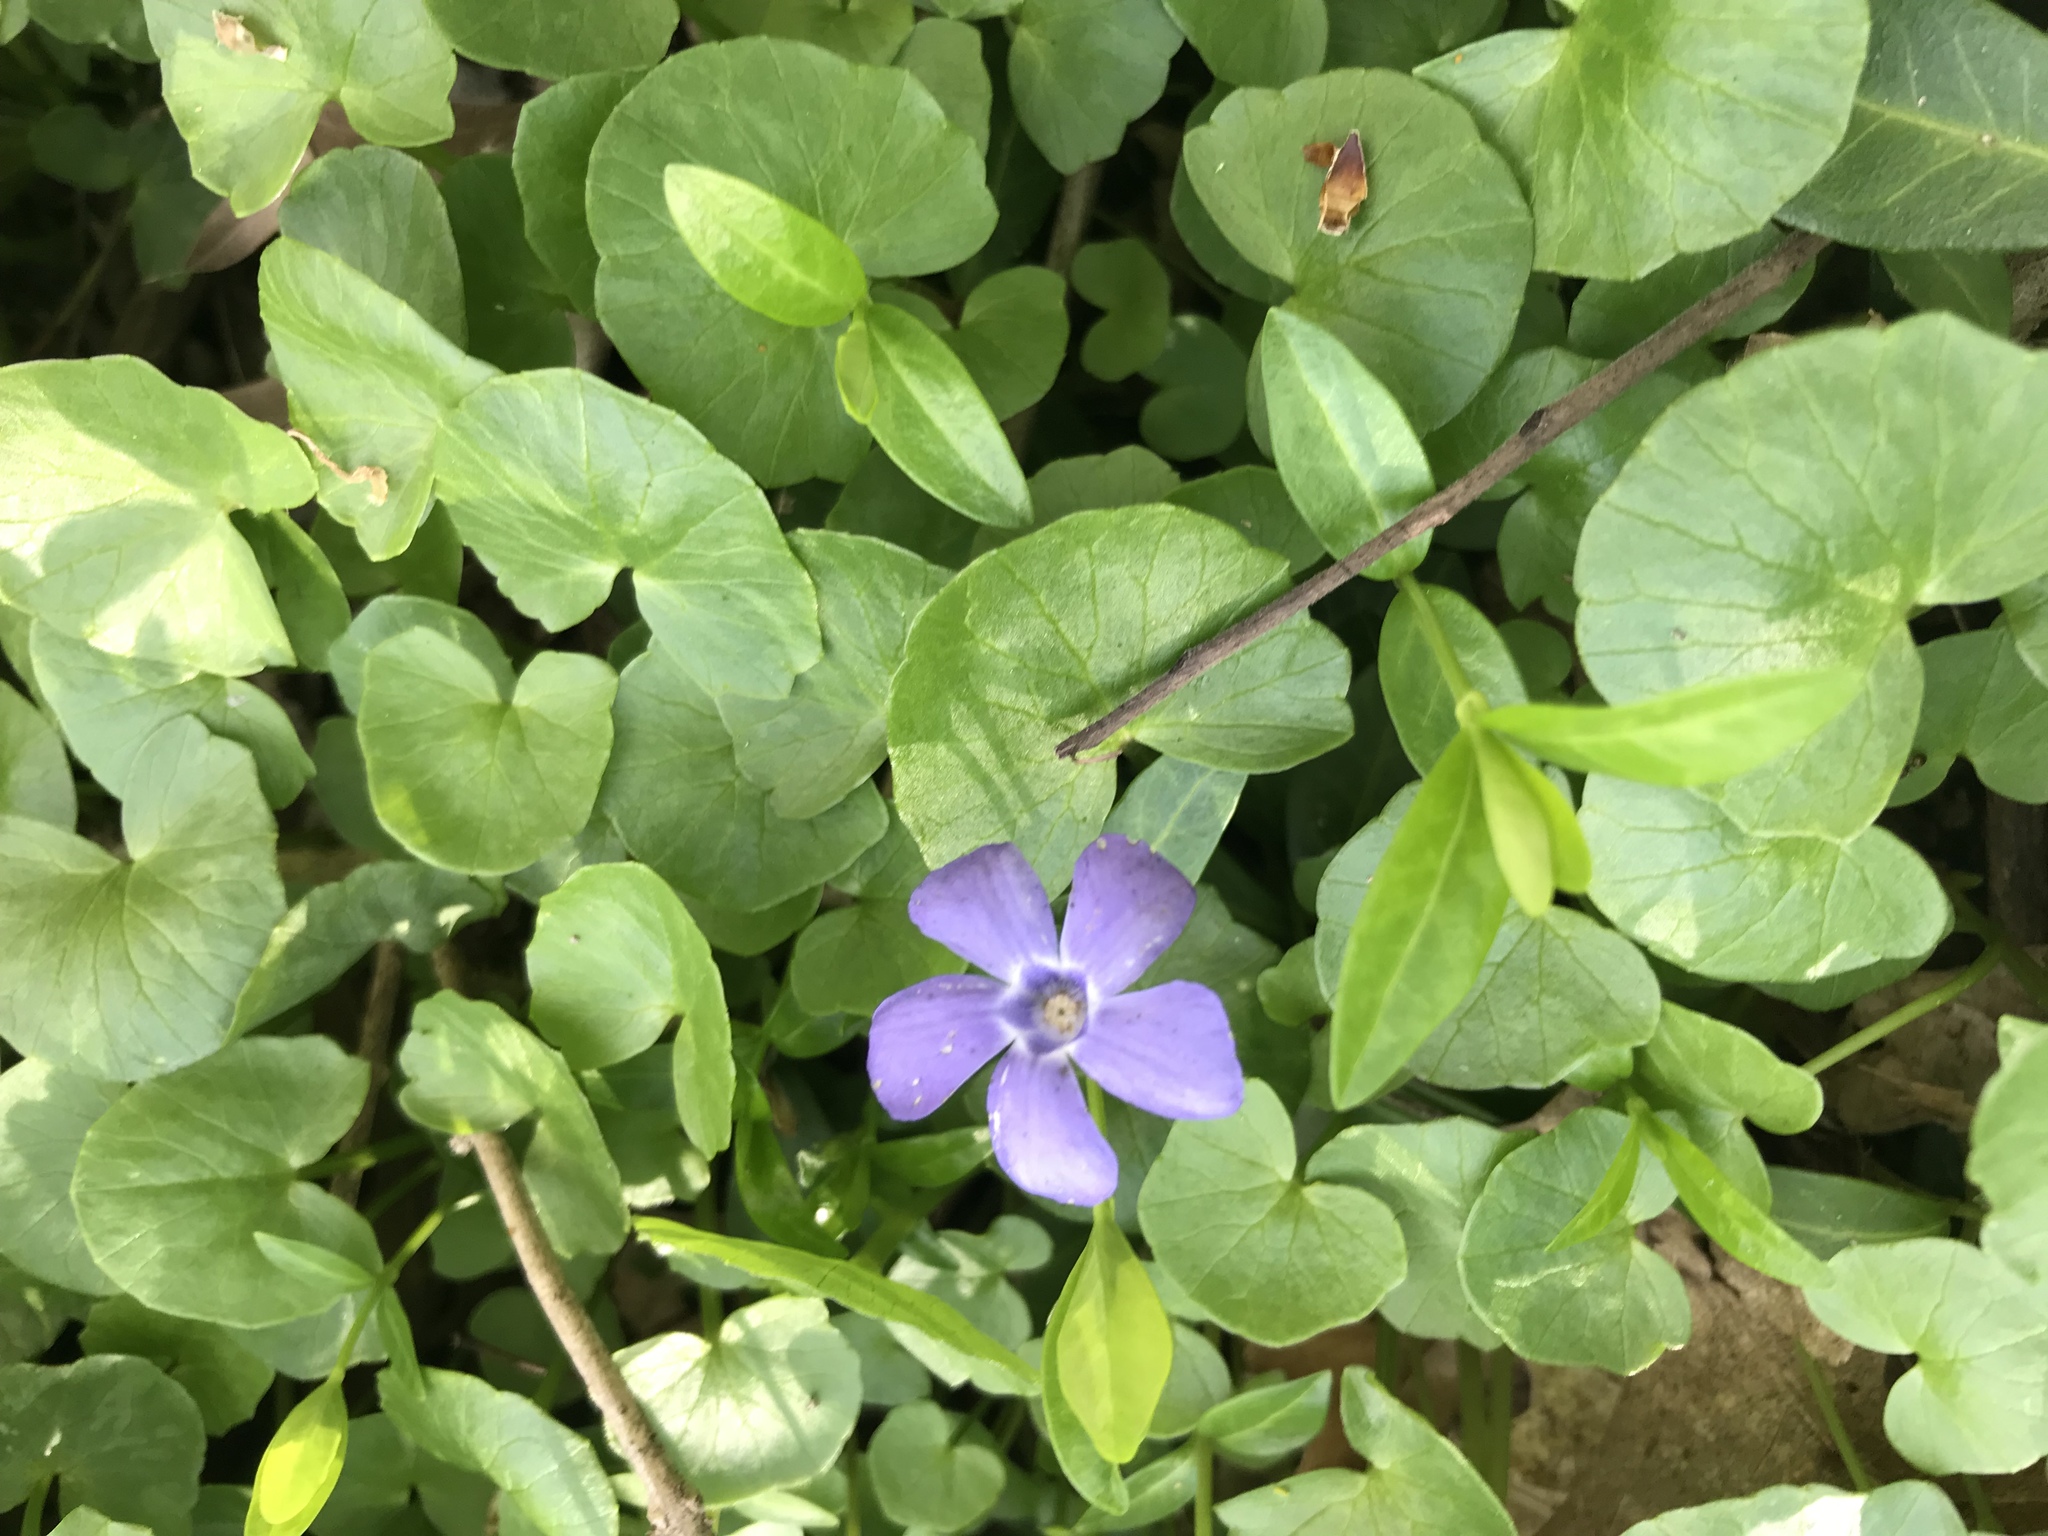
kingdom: Plantae
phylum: Tracheophyta
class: Magnoliopsida
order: Gentianales
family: Apocynaceae
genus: Vinca
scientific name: Vinca minor
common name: Lesser periwinkle
